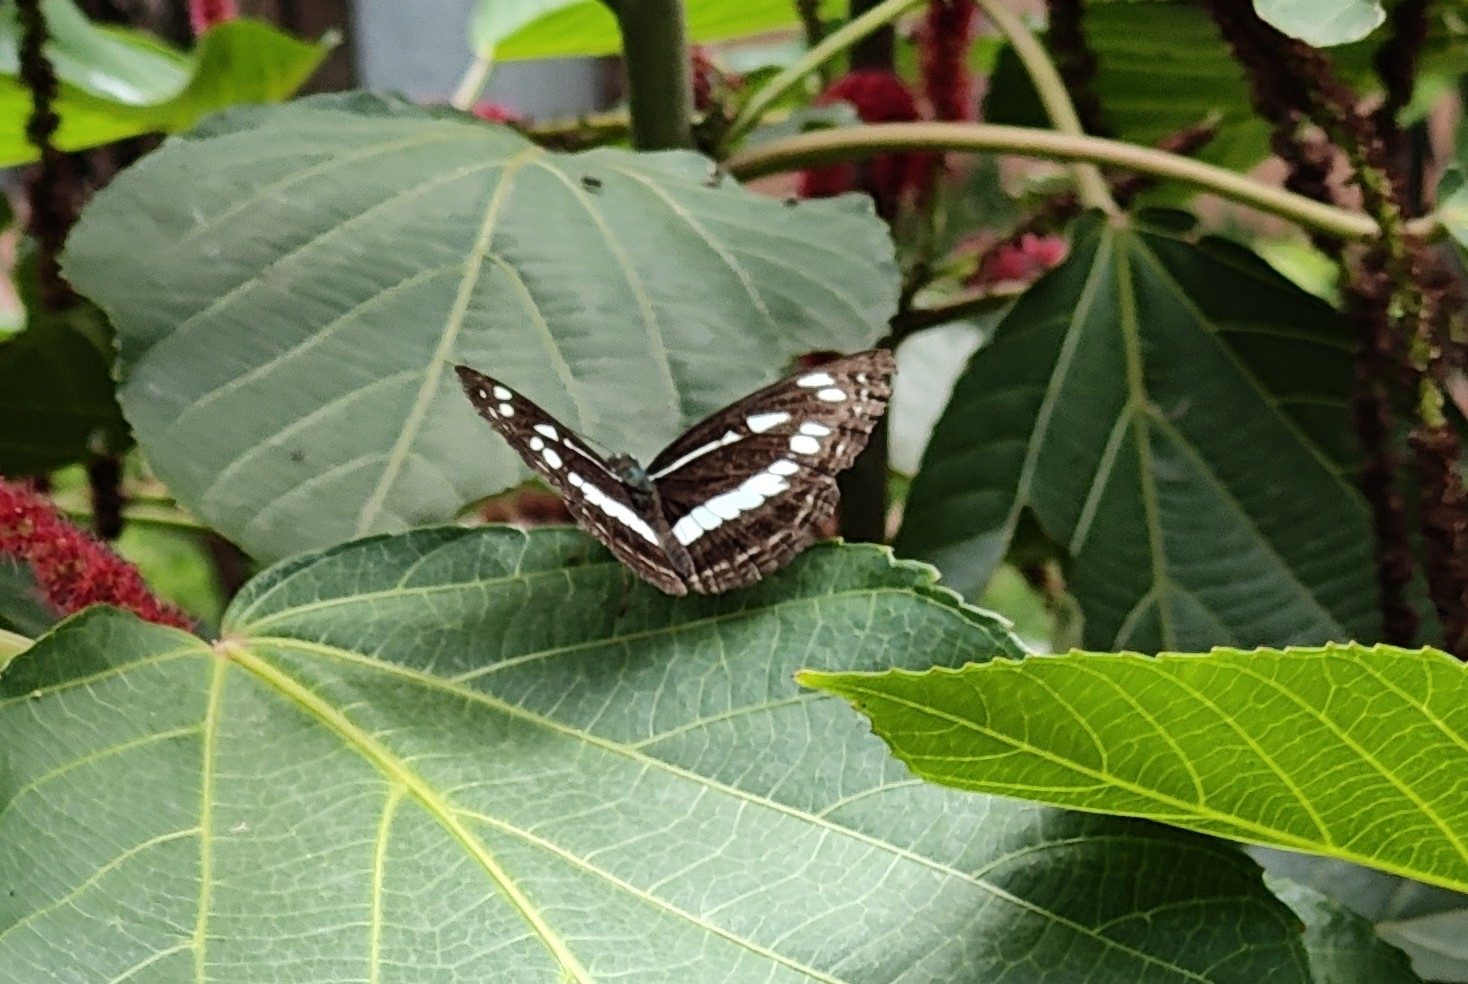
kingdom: Animalia
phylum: Arthropoda
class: Insecta
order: Lepidoptera
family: Nymphalidae
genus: Neptis
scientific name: Neptis jumbah
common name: Chestnut-streaked sailer
